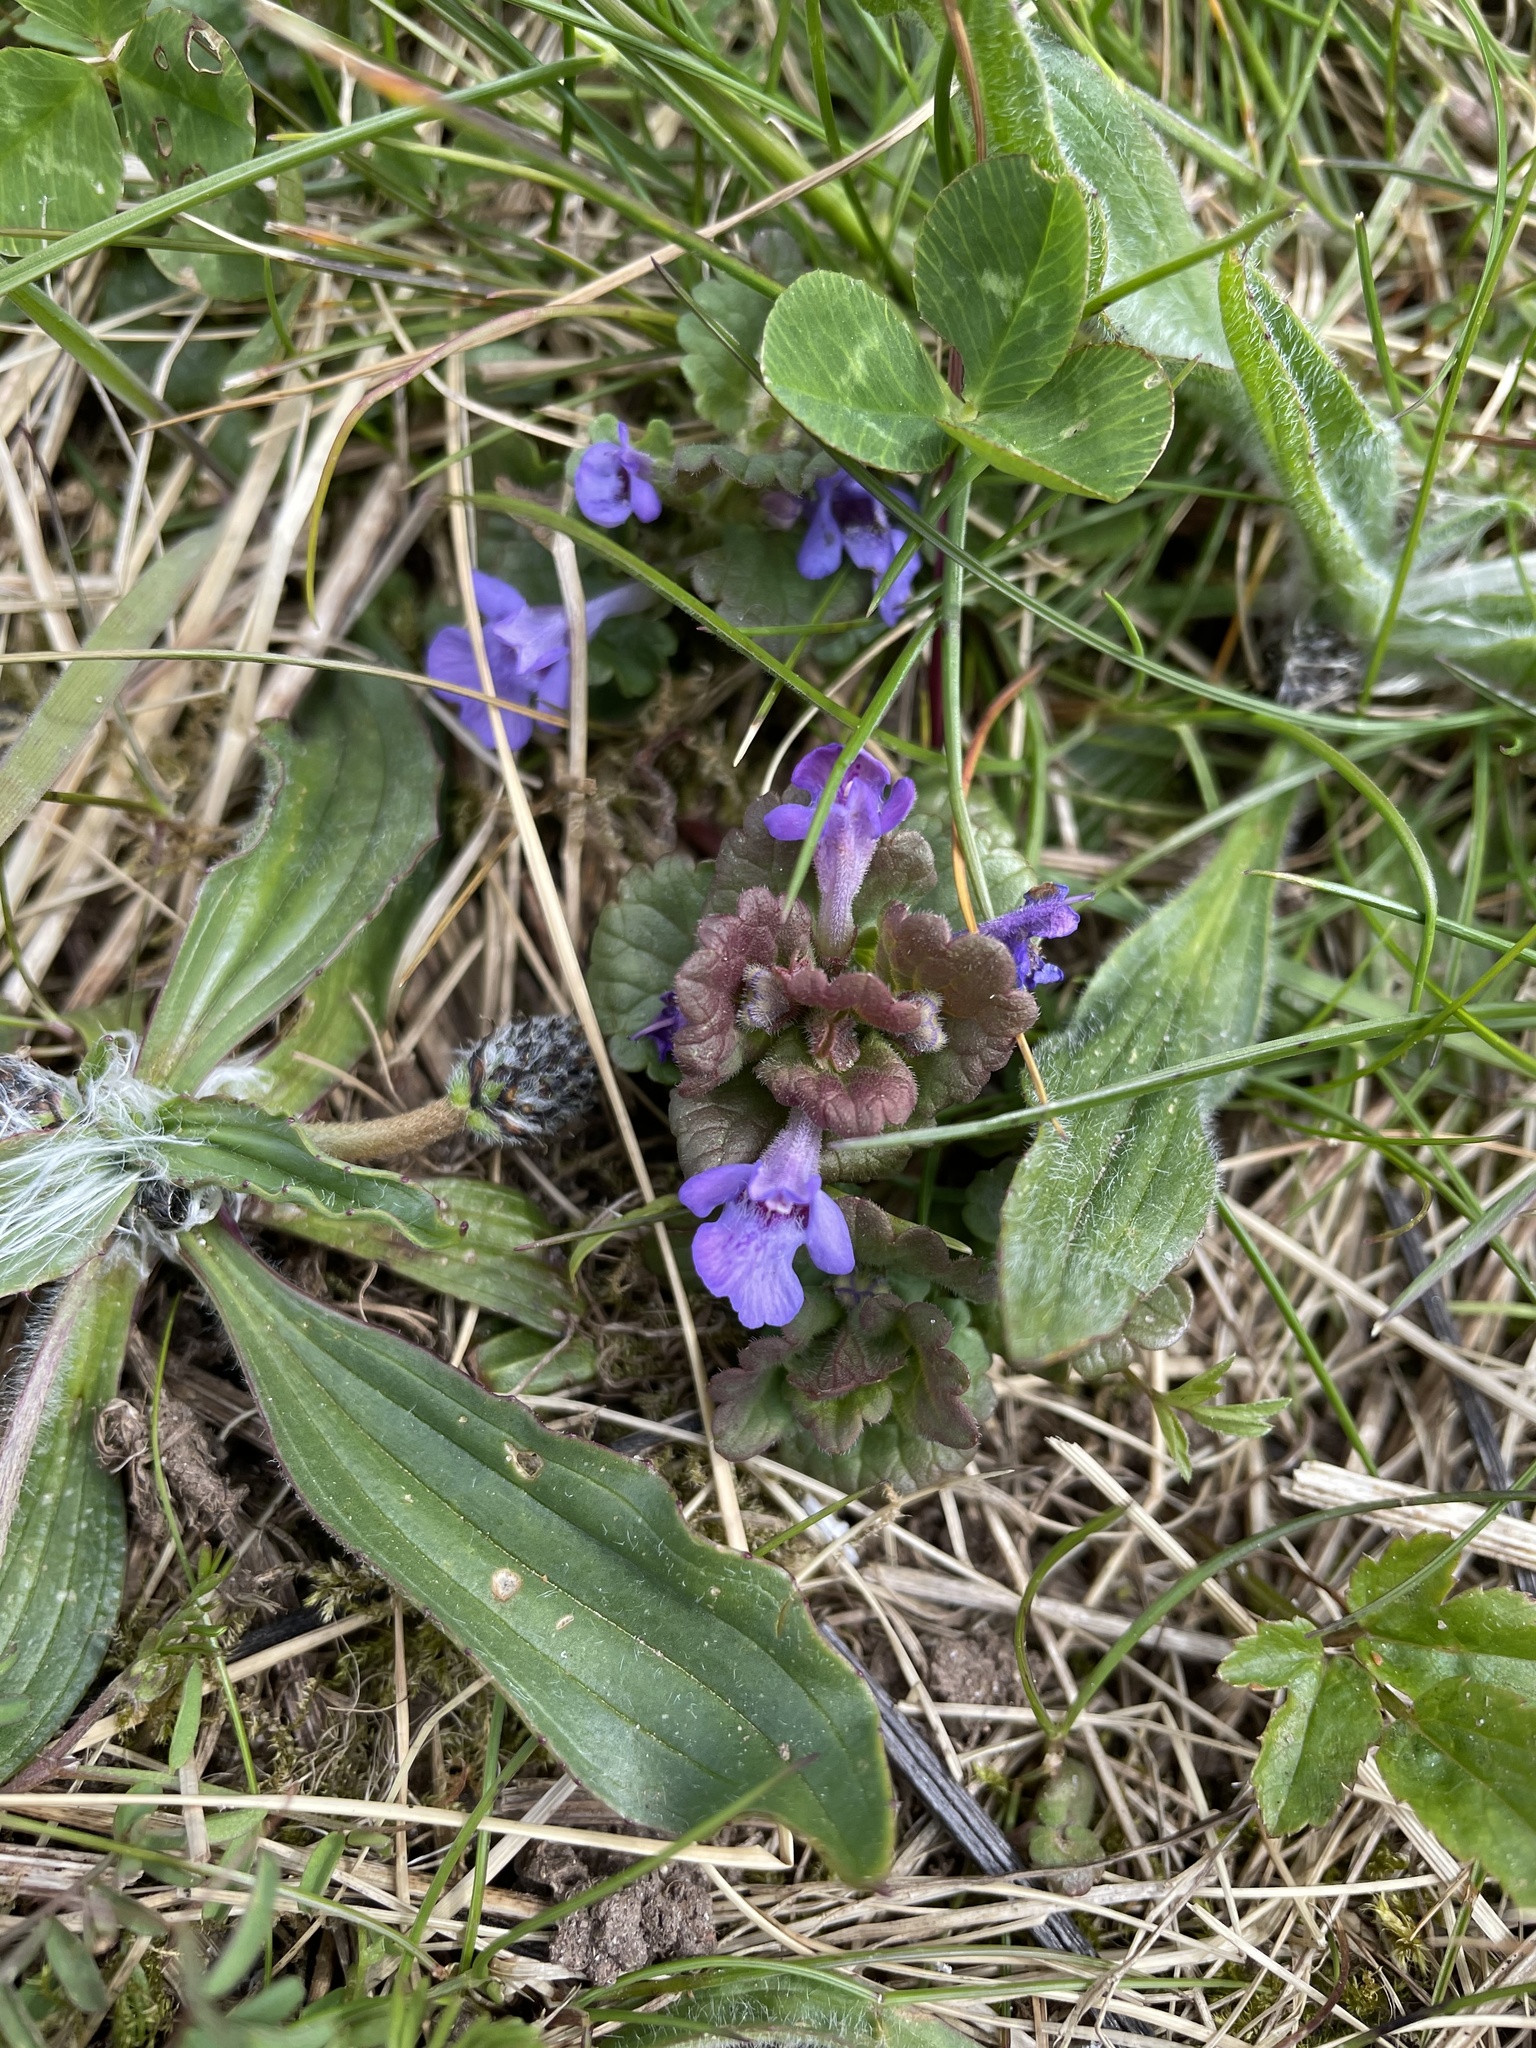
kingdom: Plantae
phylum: Tracheophyta
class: Magnoliopsida
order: Lamiales
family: Lamiaceae
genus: Glechoma
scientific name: Glechoma hederacea
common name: Ground ivy
